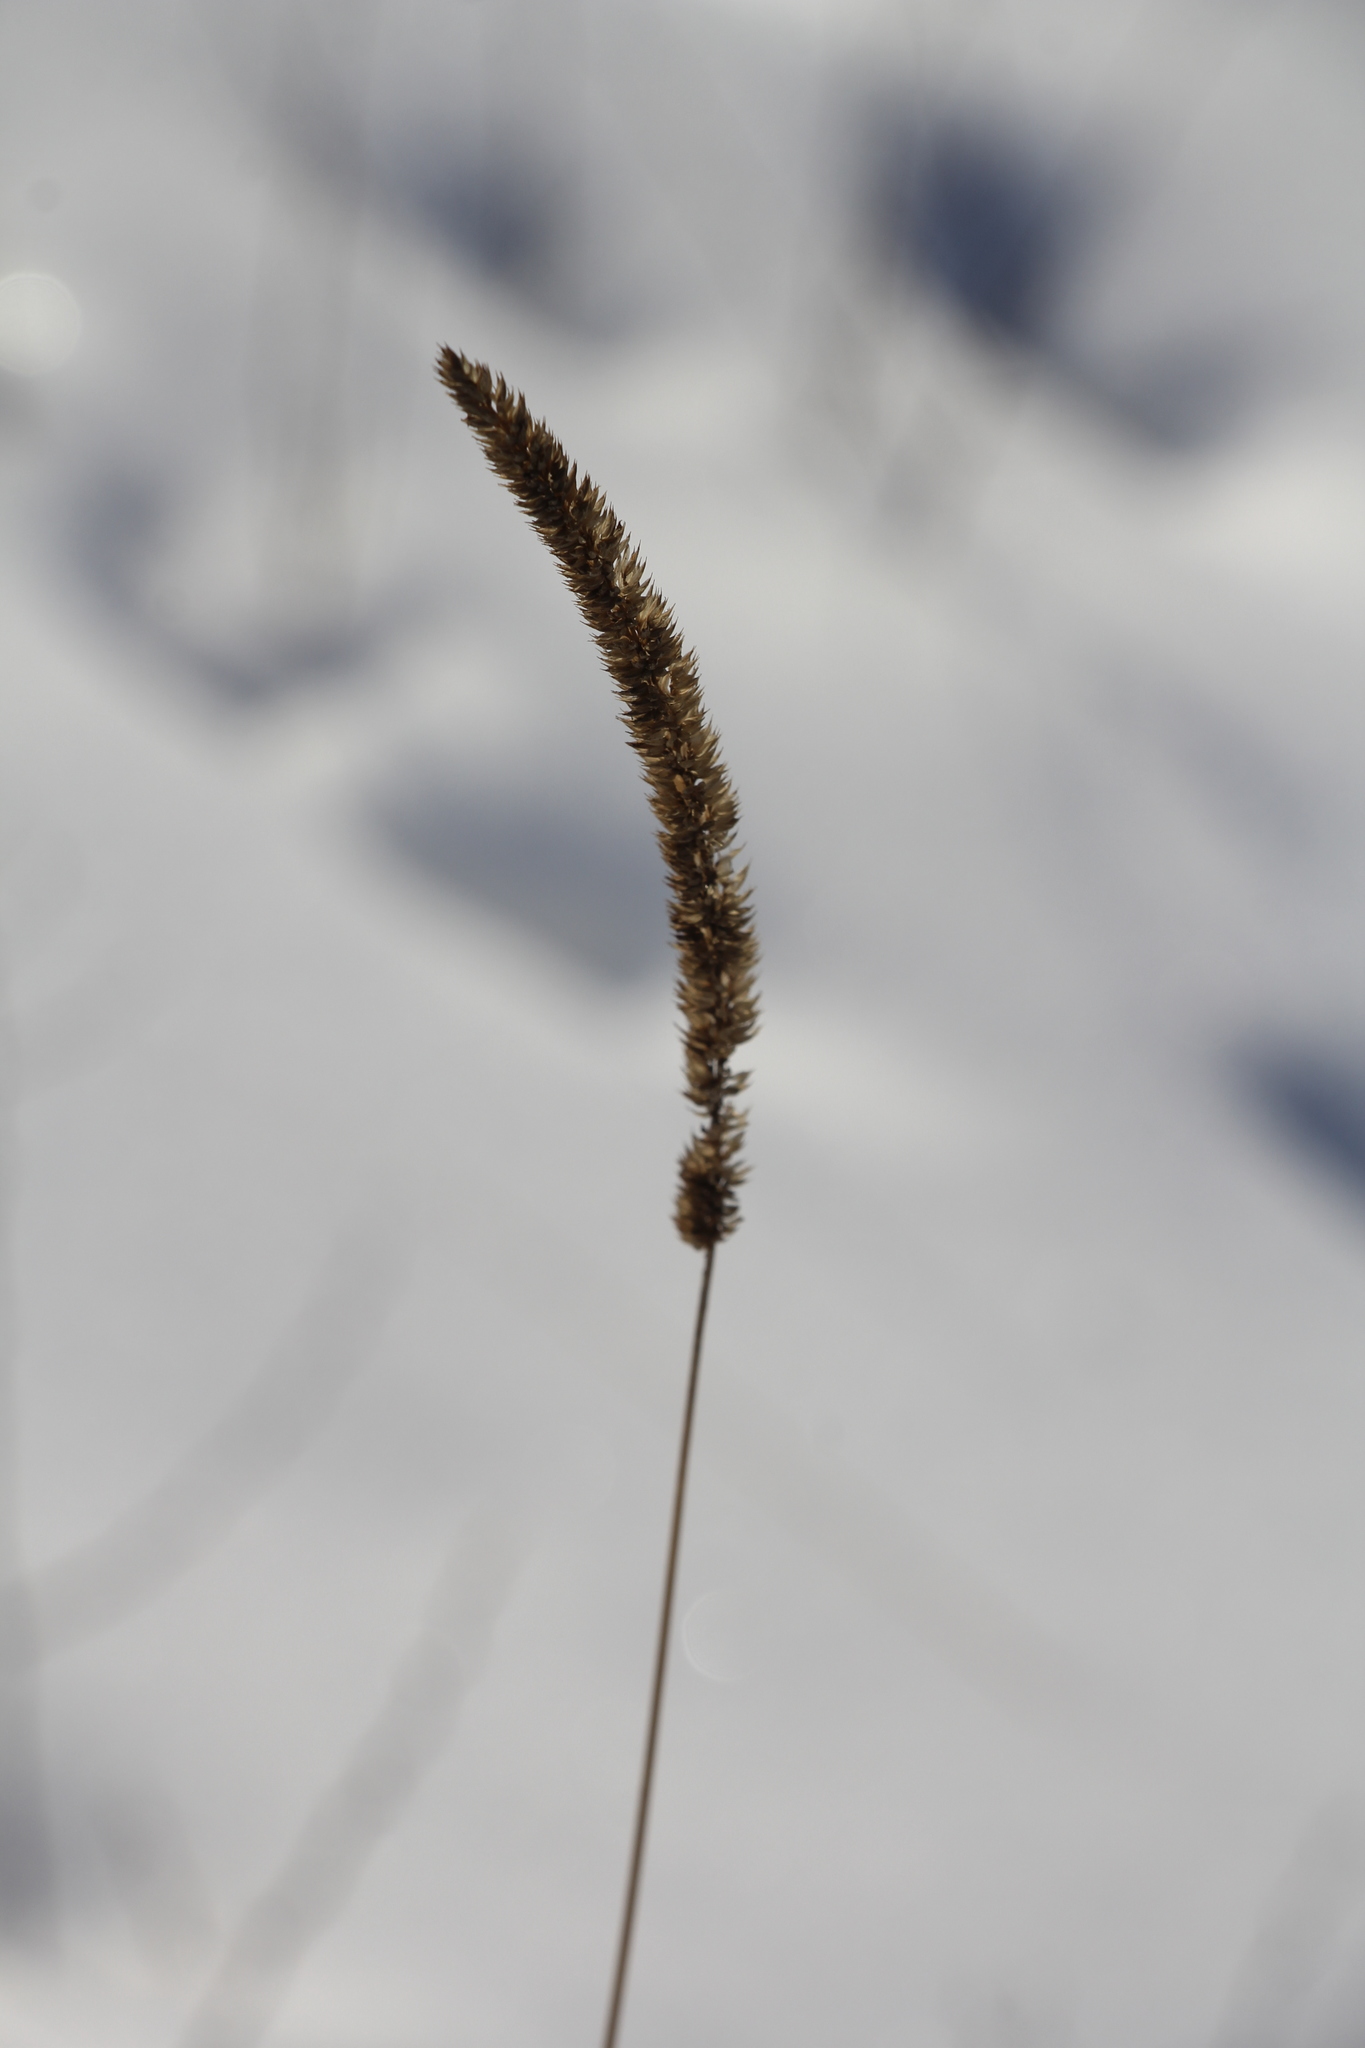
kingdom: Plantae
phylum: Tracheophyta
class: Liliopsida
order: Poales
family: Poaceae
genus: Phleum
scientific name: Phleum phleoides
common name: Purple-stem cat's-tail
